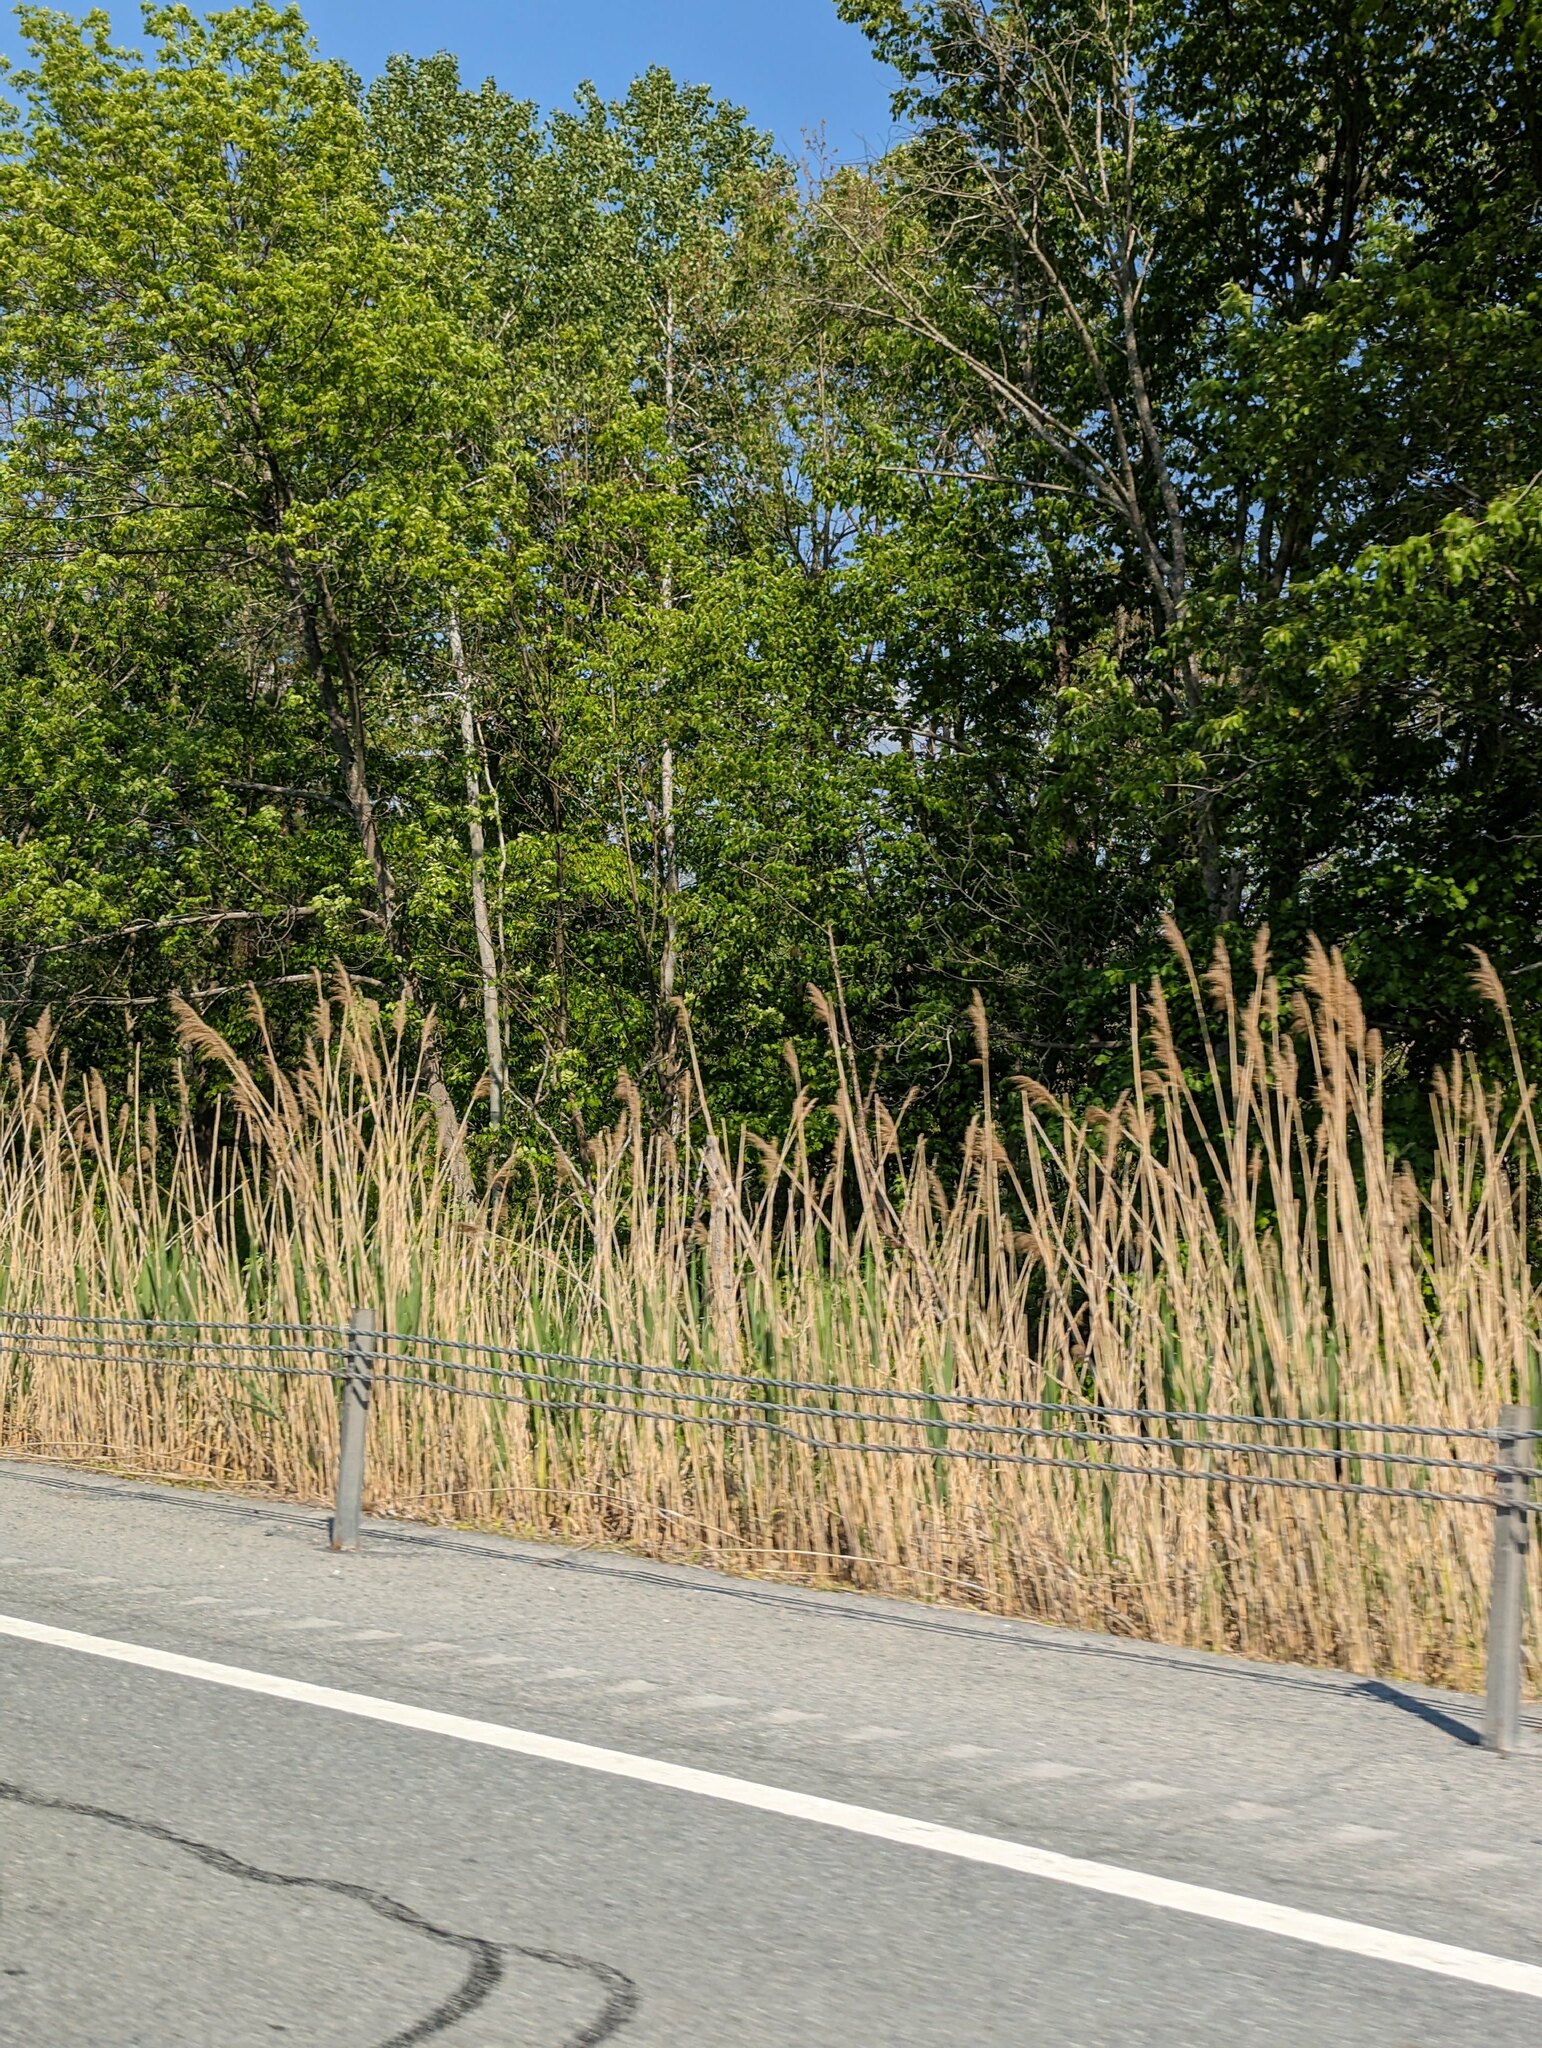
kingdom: Plantae
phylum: Tracheophyta
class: Liliopsida
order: Poales
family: Poaceae
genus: Phragmites
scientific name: Phragmites australis
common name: Common reed
